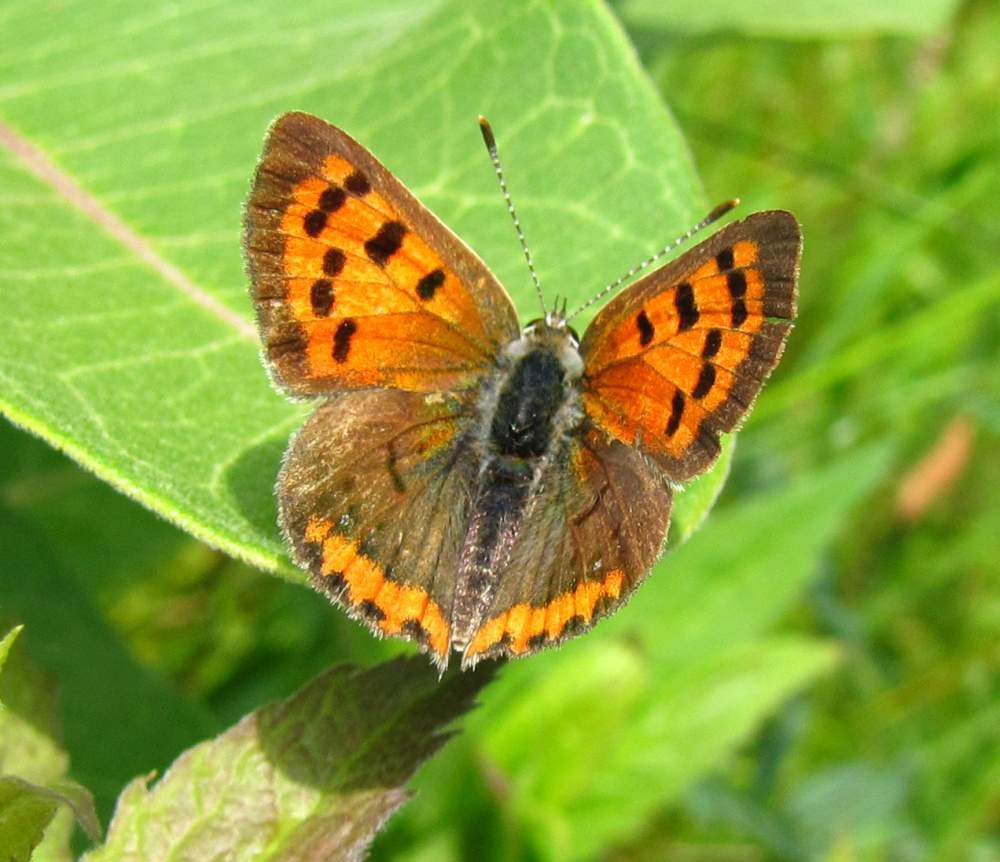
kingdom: Animalia
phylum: Arthropoda
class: Insecta
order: Lepidoptera
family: Lycaenidae
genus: Lycaena
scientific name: Lycaena hypophlaeas
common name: American copper
